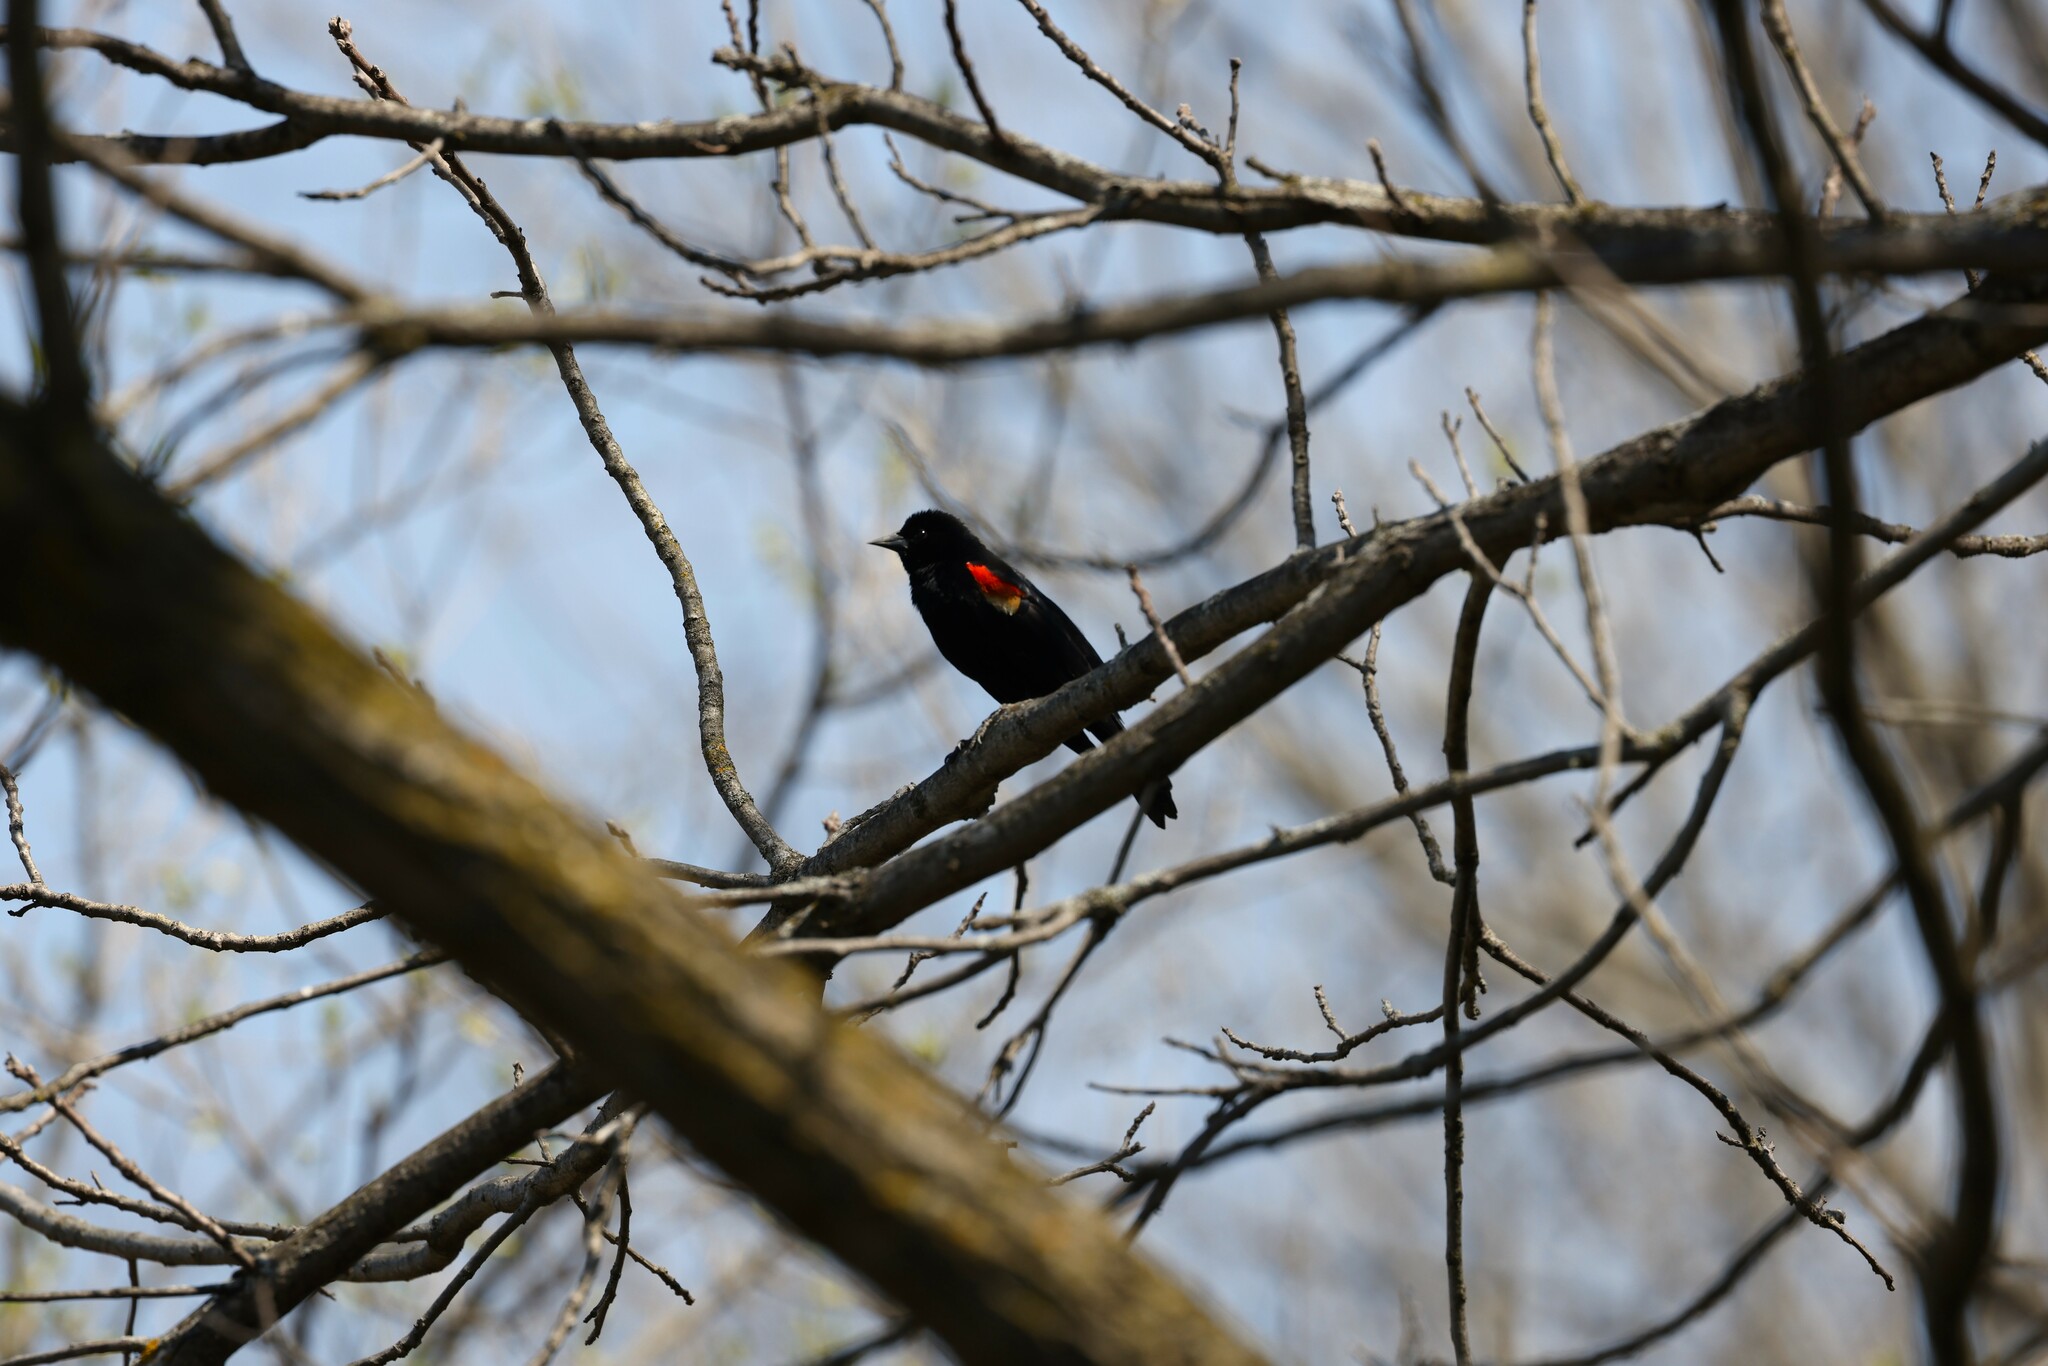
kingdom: Animalia
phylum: Chordata
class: Aves
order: Passeriformes
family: Icteridae
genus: Agelaius
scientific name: Agelaius phoeniceus
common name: Red-winged blackbird
